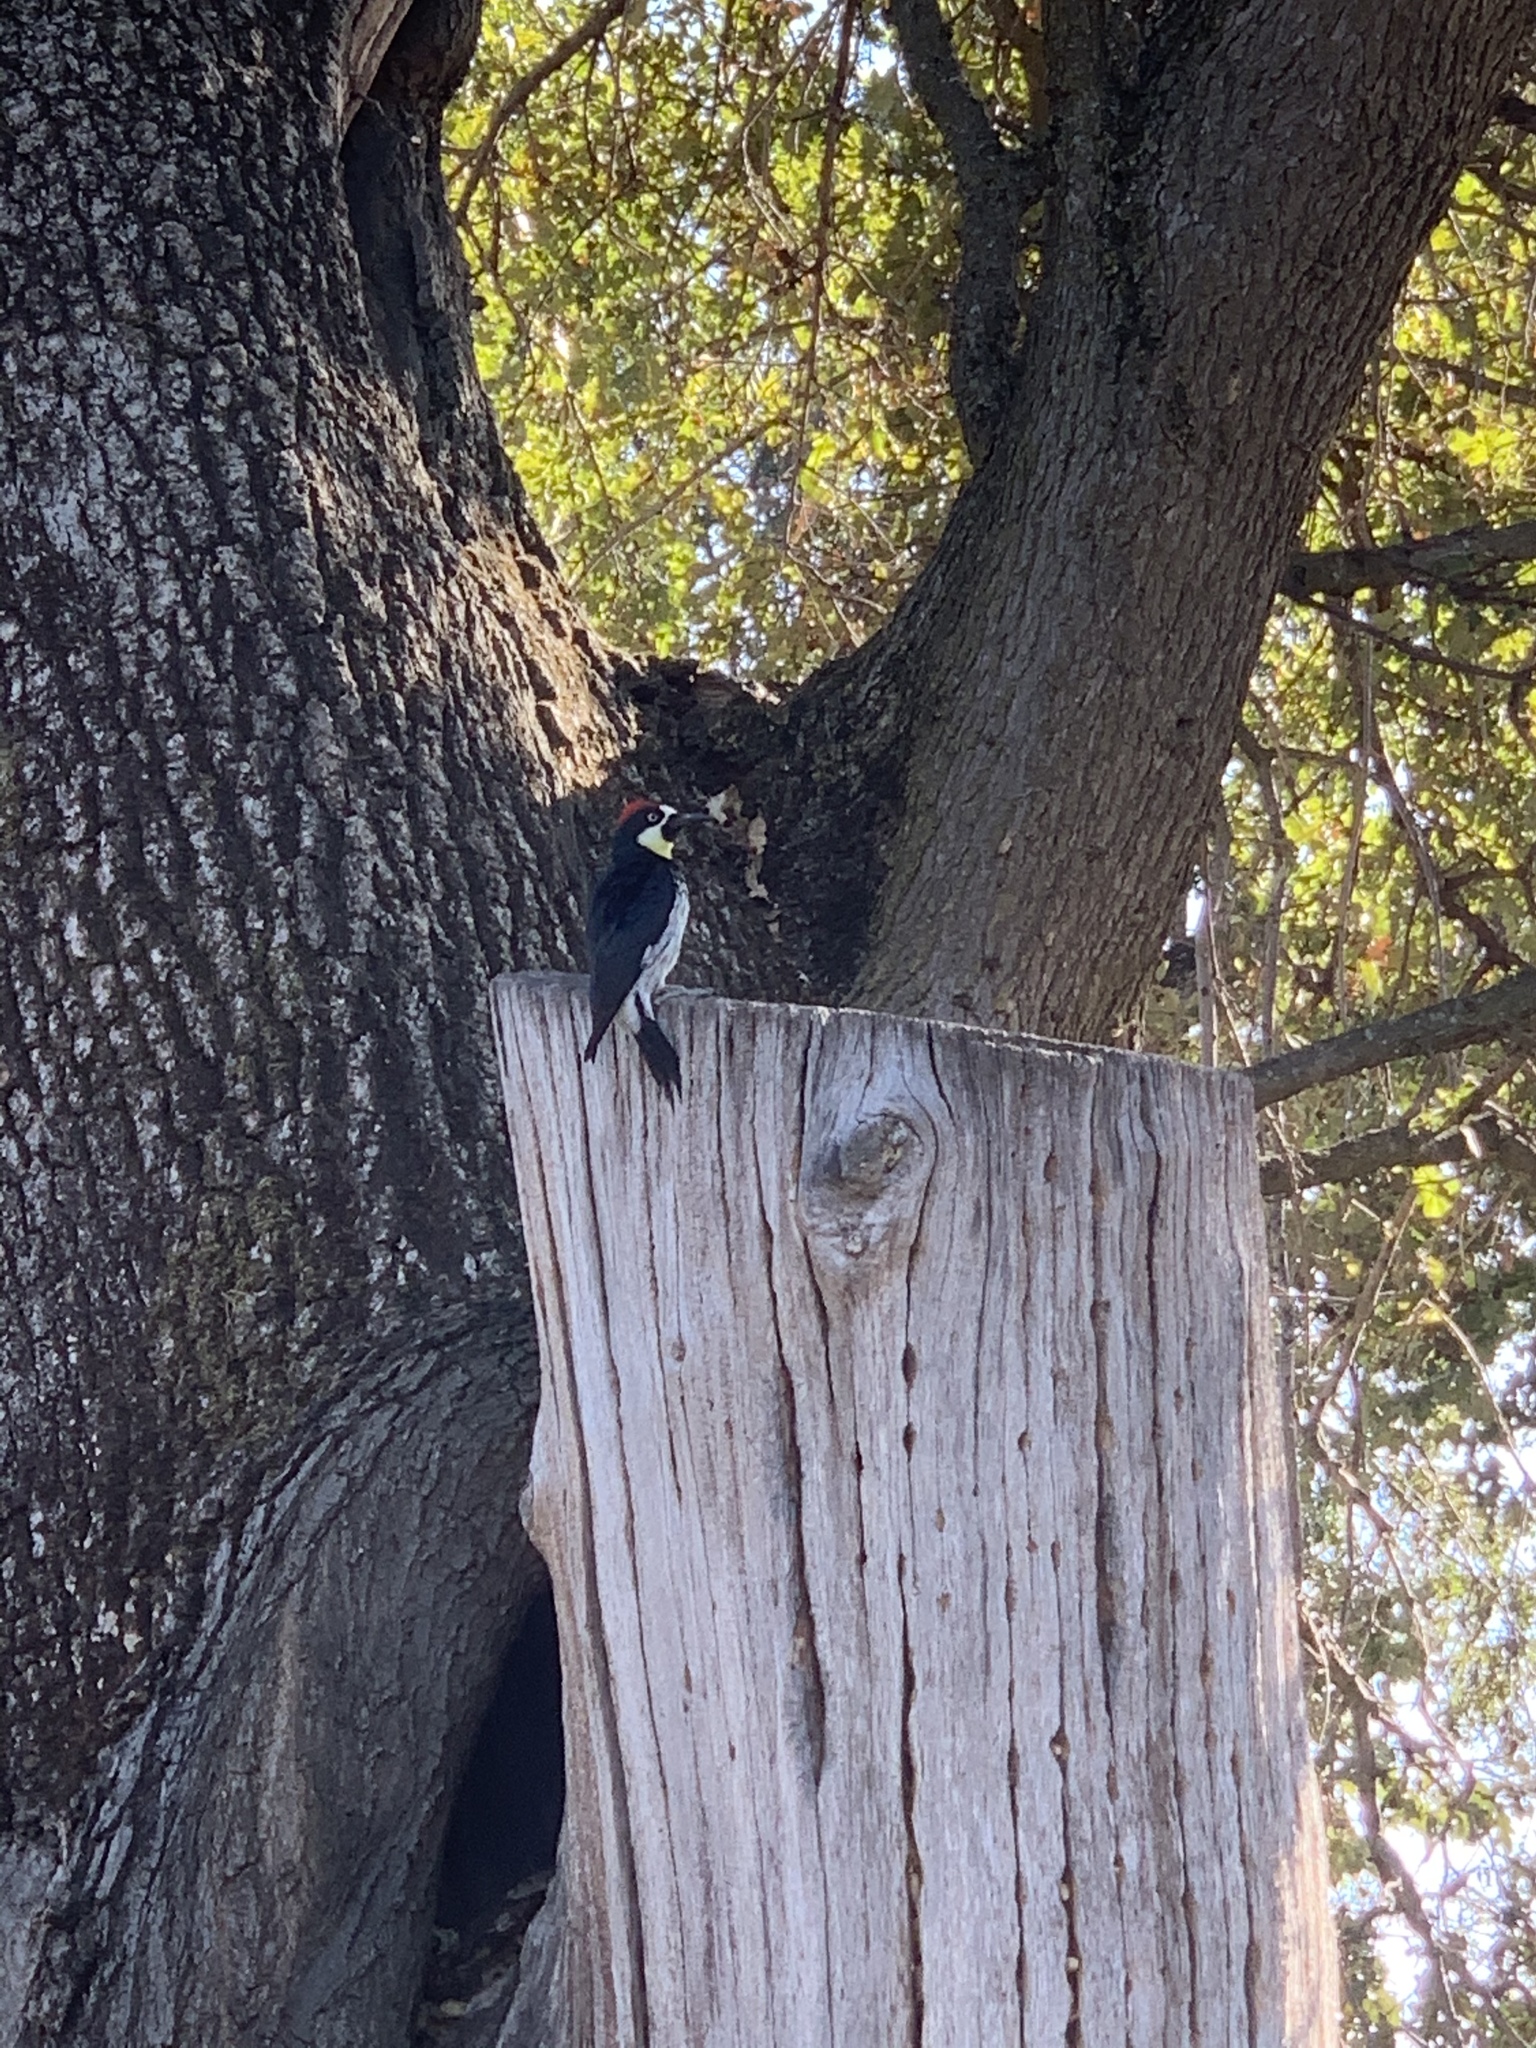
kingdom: Animalia
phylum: Chordata
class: Aves
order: Piciformes
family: Picidae
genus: Melanerpes
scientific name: Melanerpes formicivorus
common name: Acorn woodpecker
